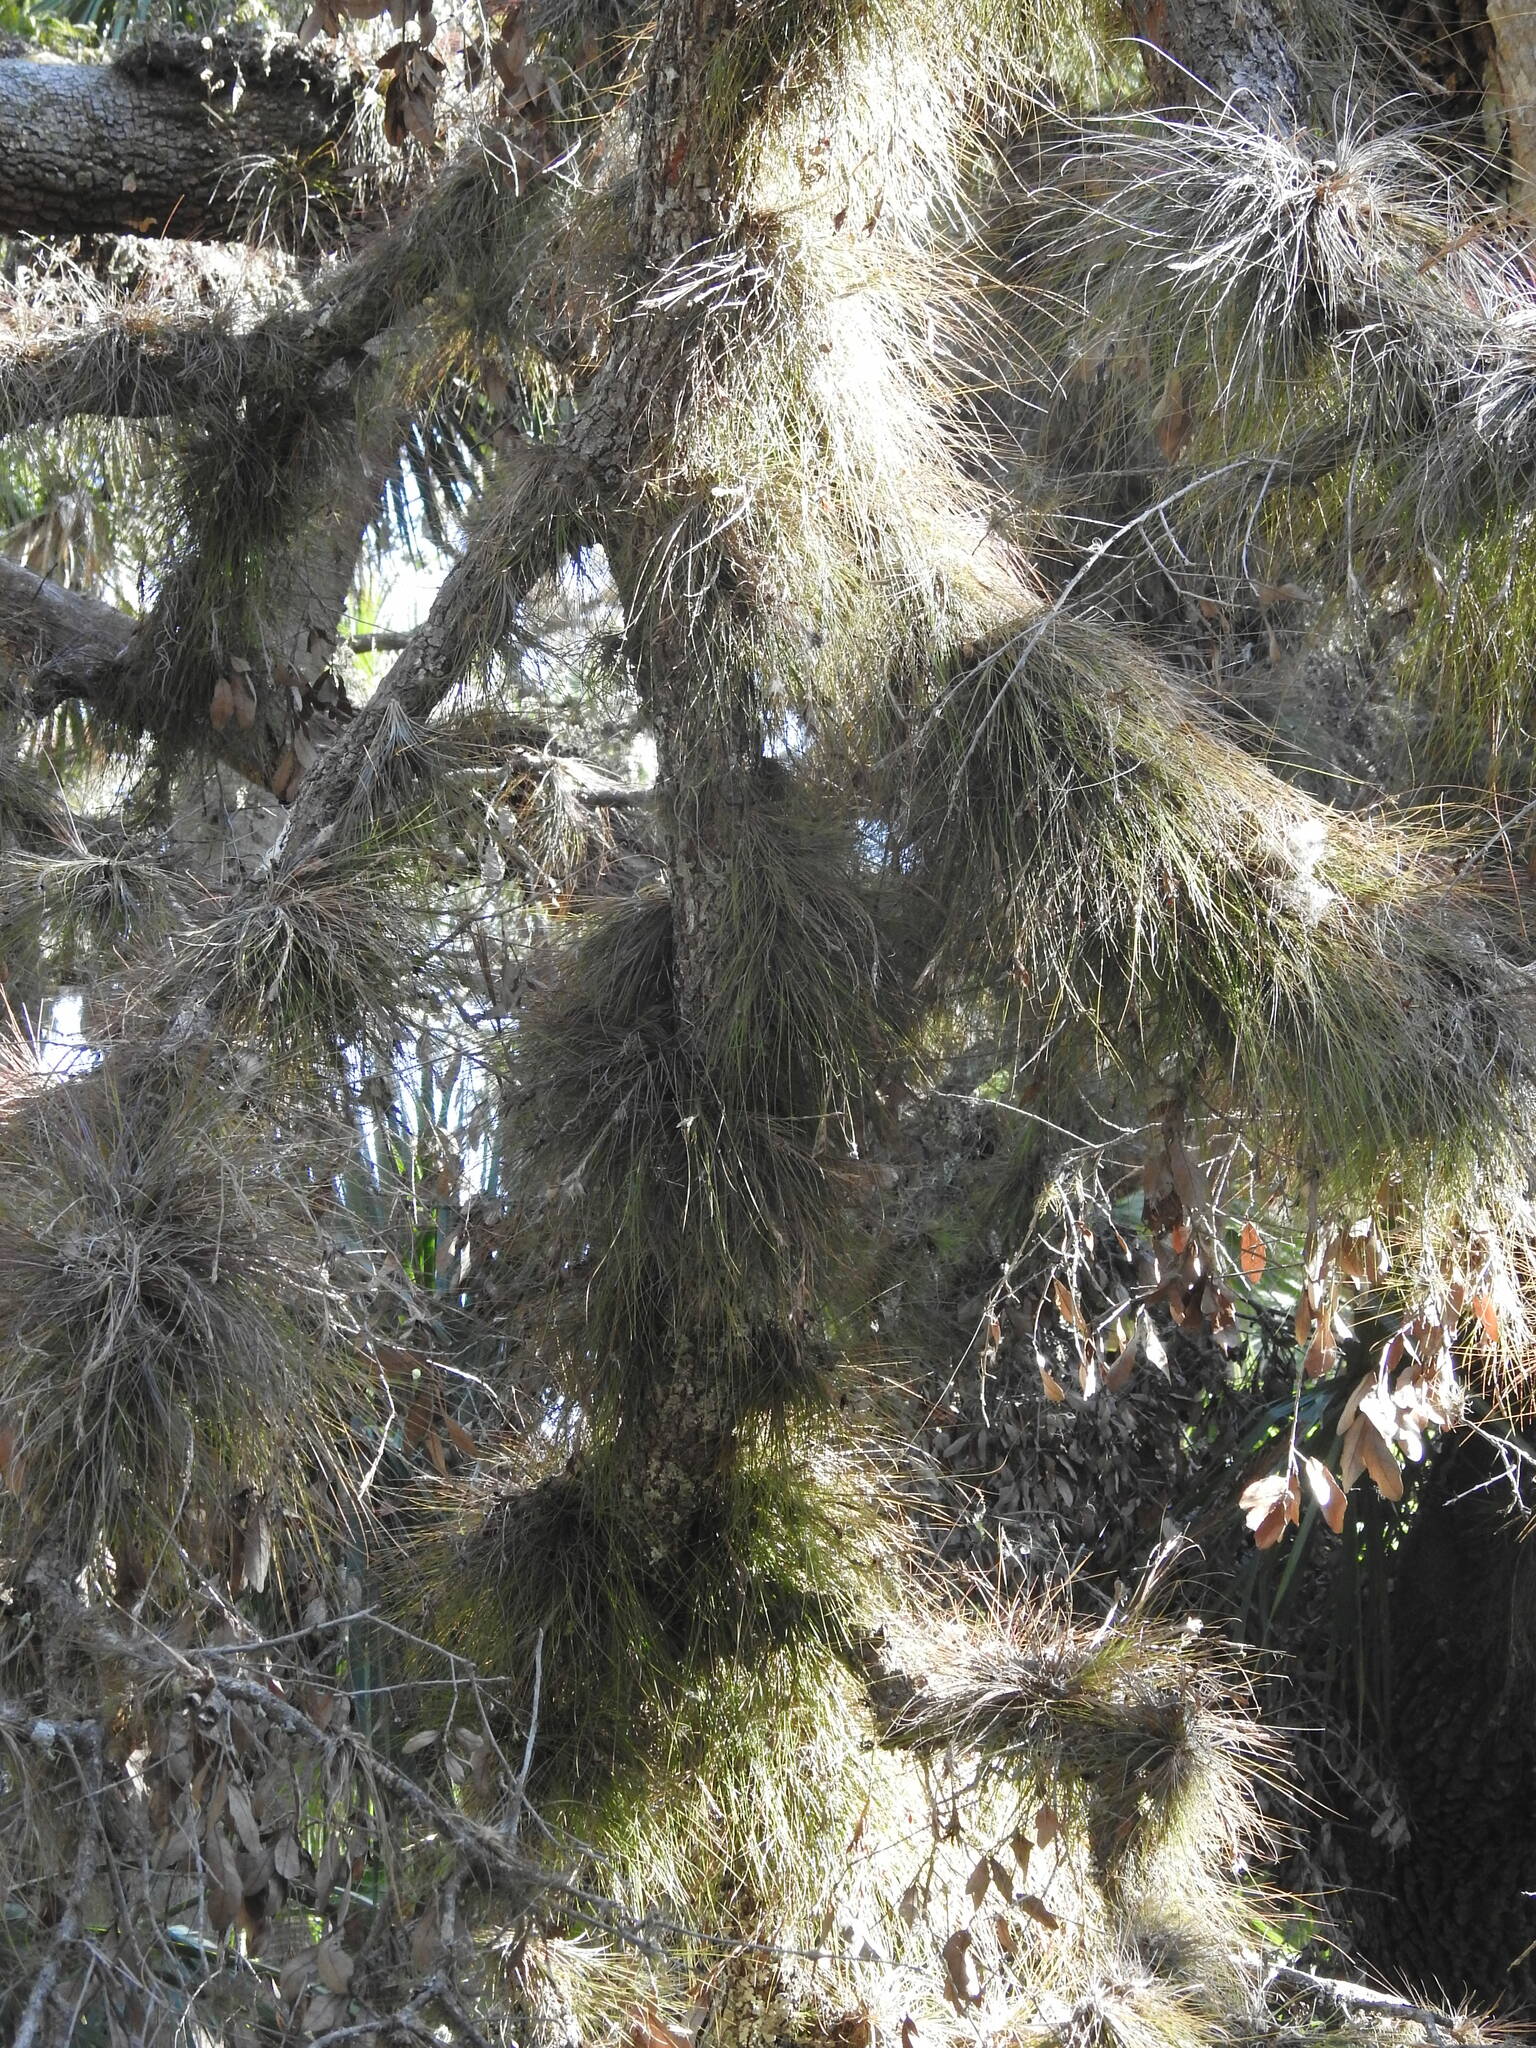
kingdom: Plantae
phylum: Tracheophyta
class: Liliopsida
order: Poales
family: Bromeliaceae
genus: Tillandsia
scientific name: Tillandsia setacea
